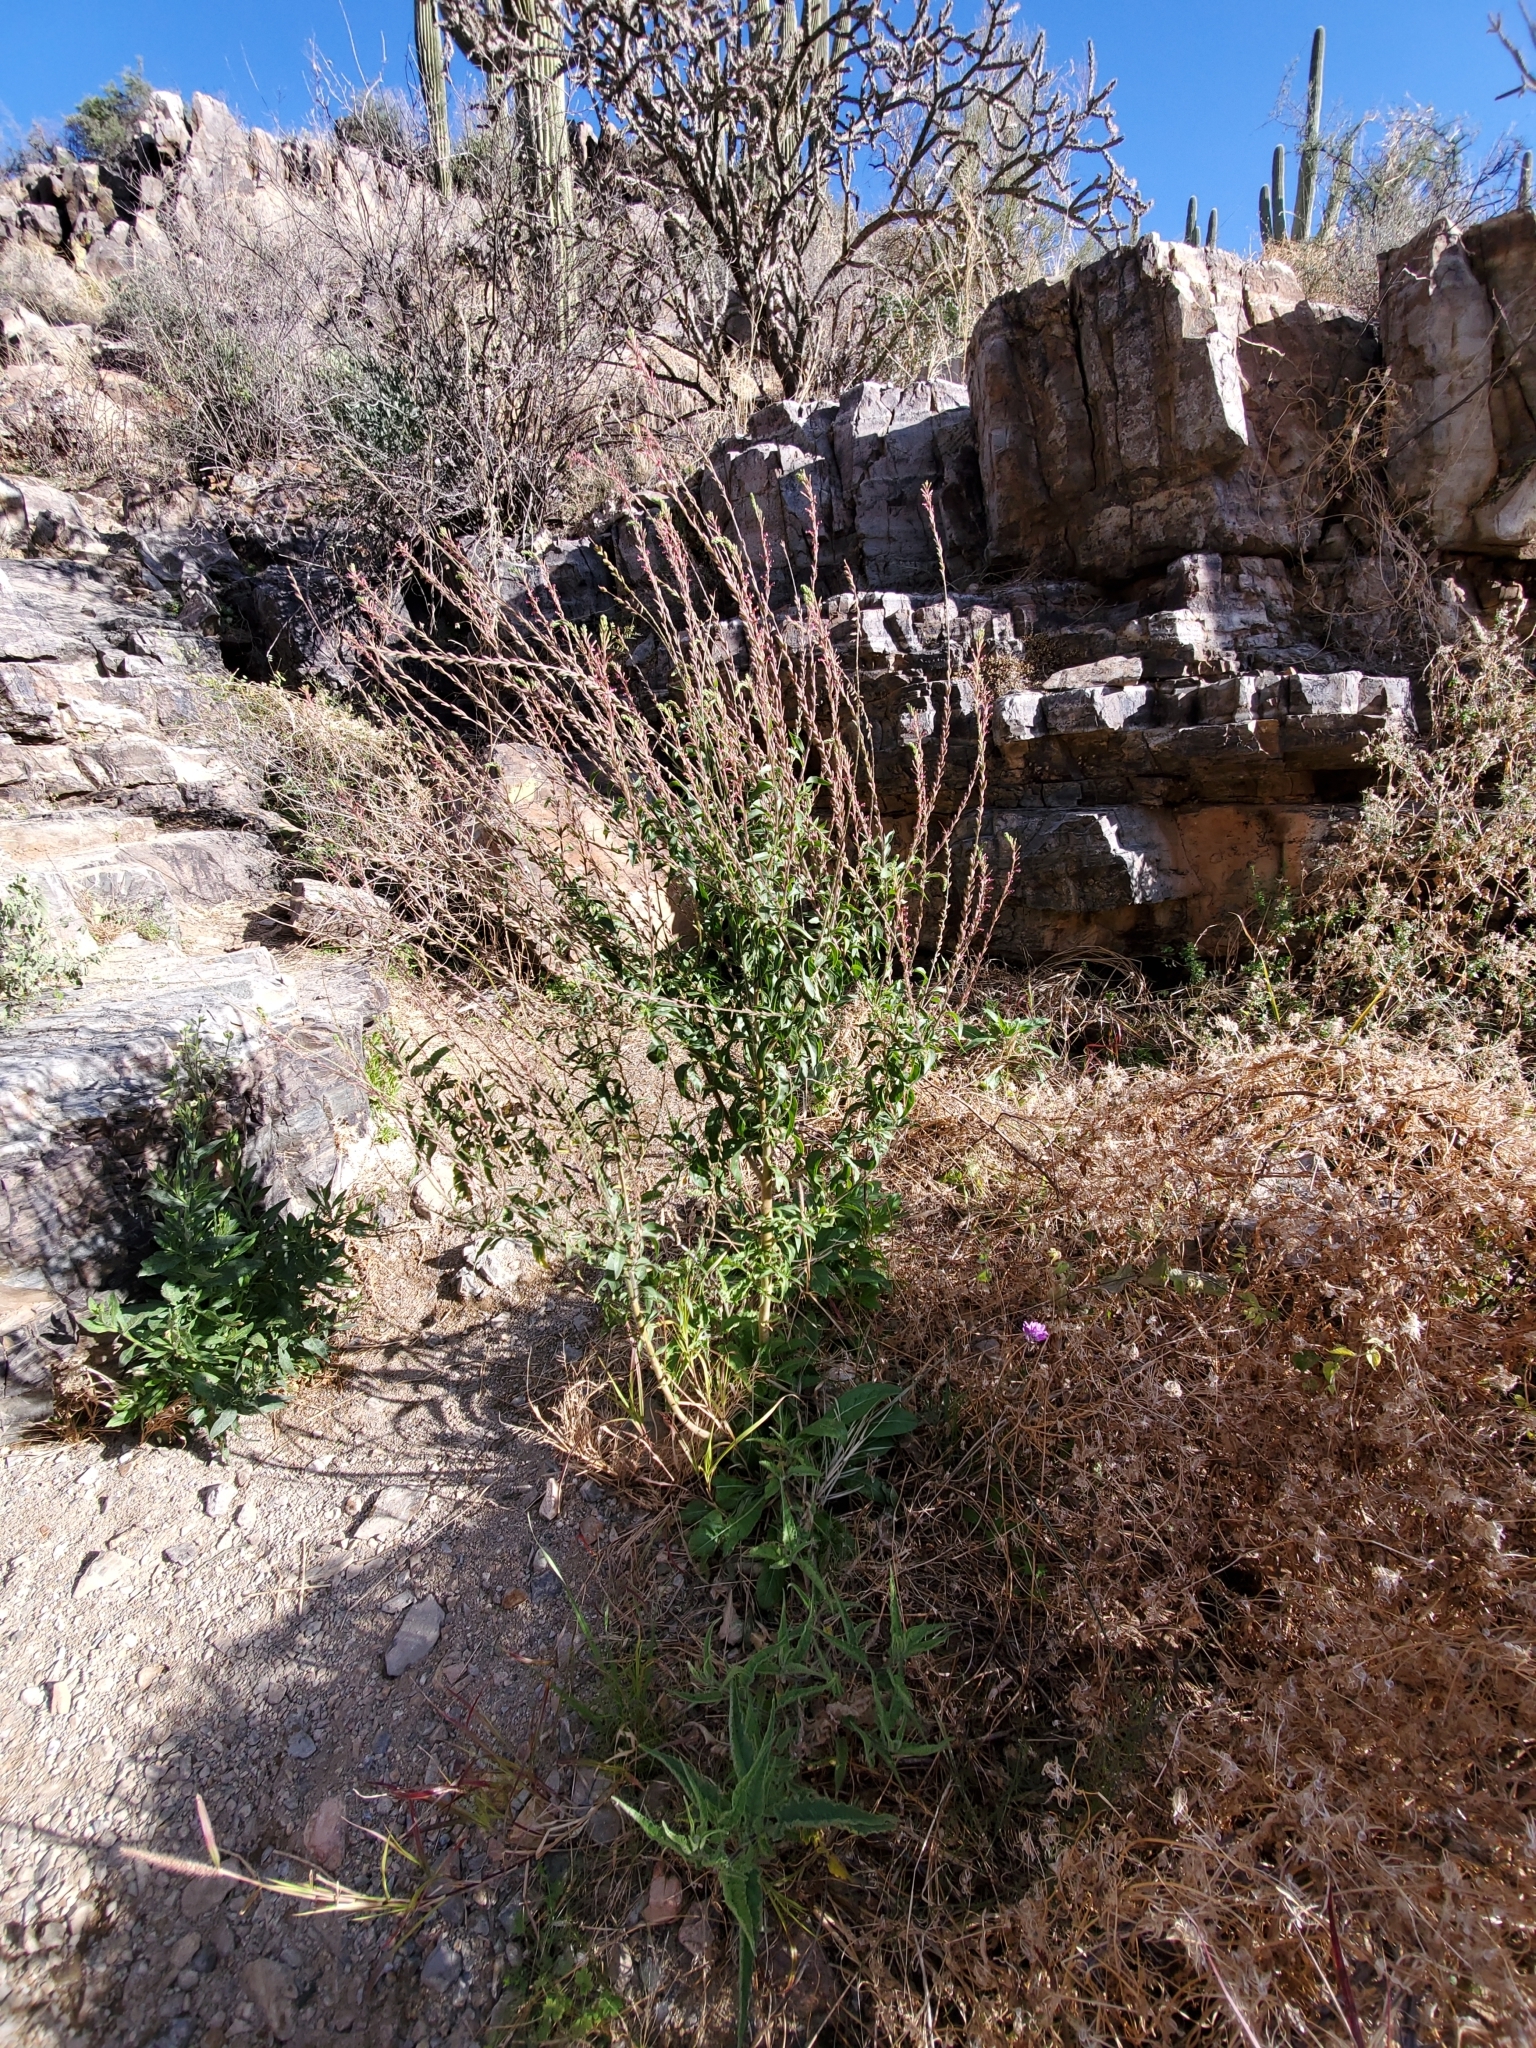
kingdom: Plantae
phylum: Tracheophyta
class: Magnoliopsida
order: Myrtales
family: Onagraceae
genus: Oenothera
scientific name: Oenothera curtiflora
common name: Velvetweed
